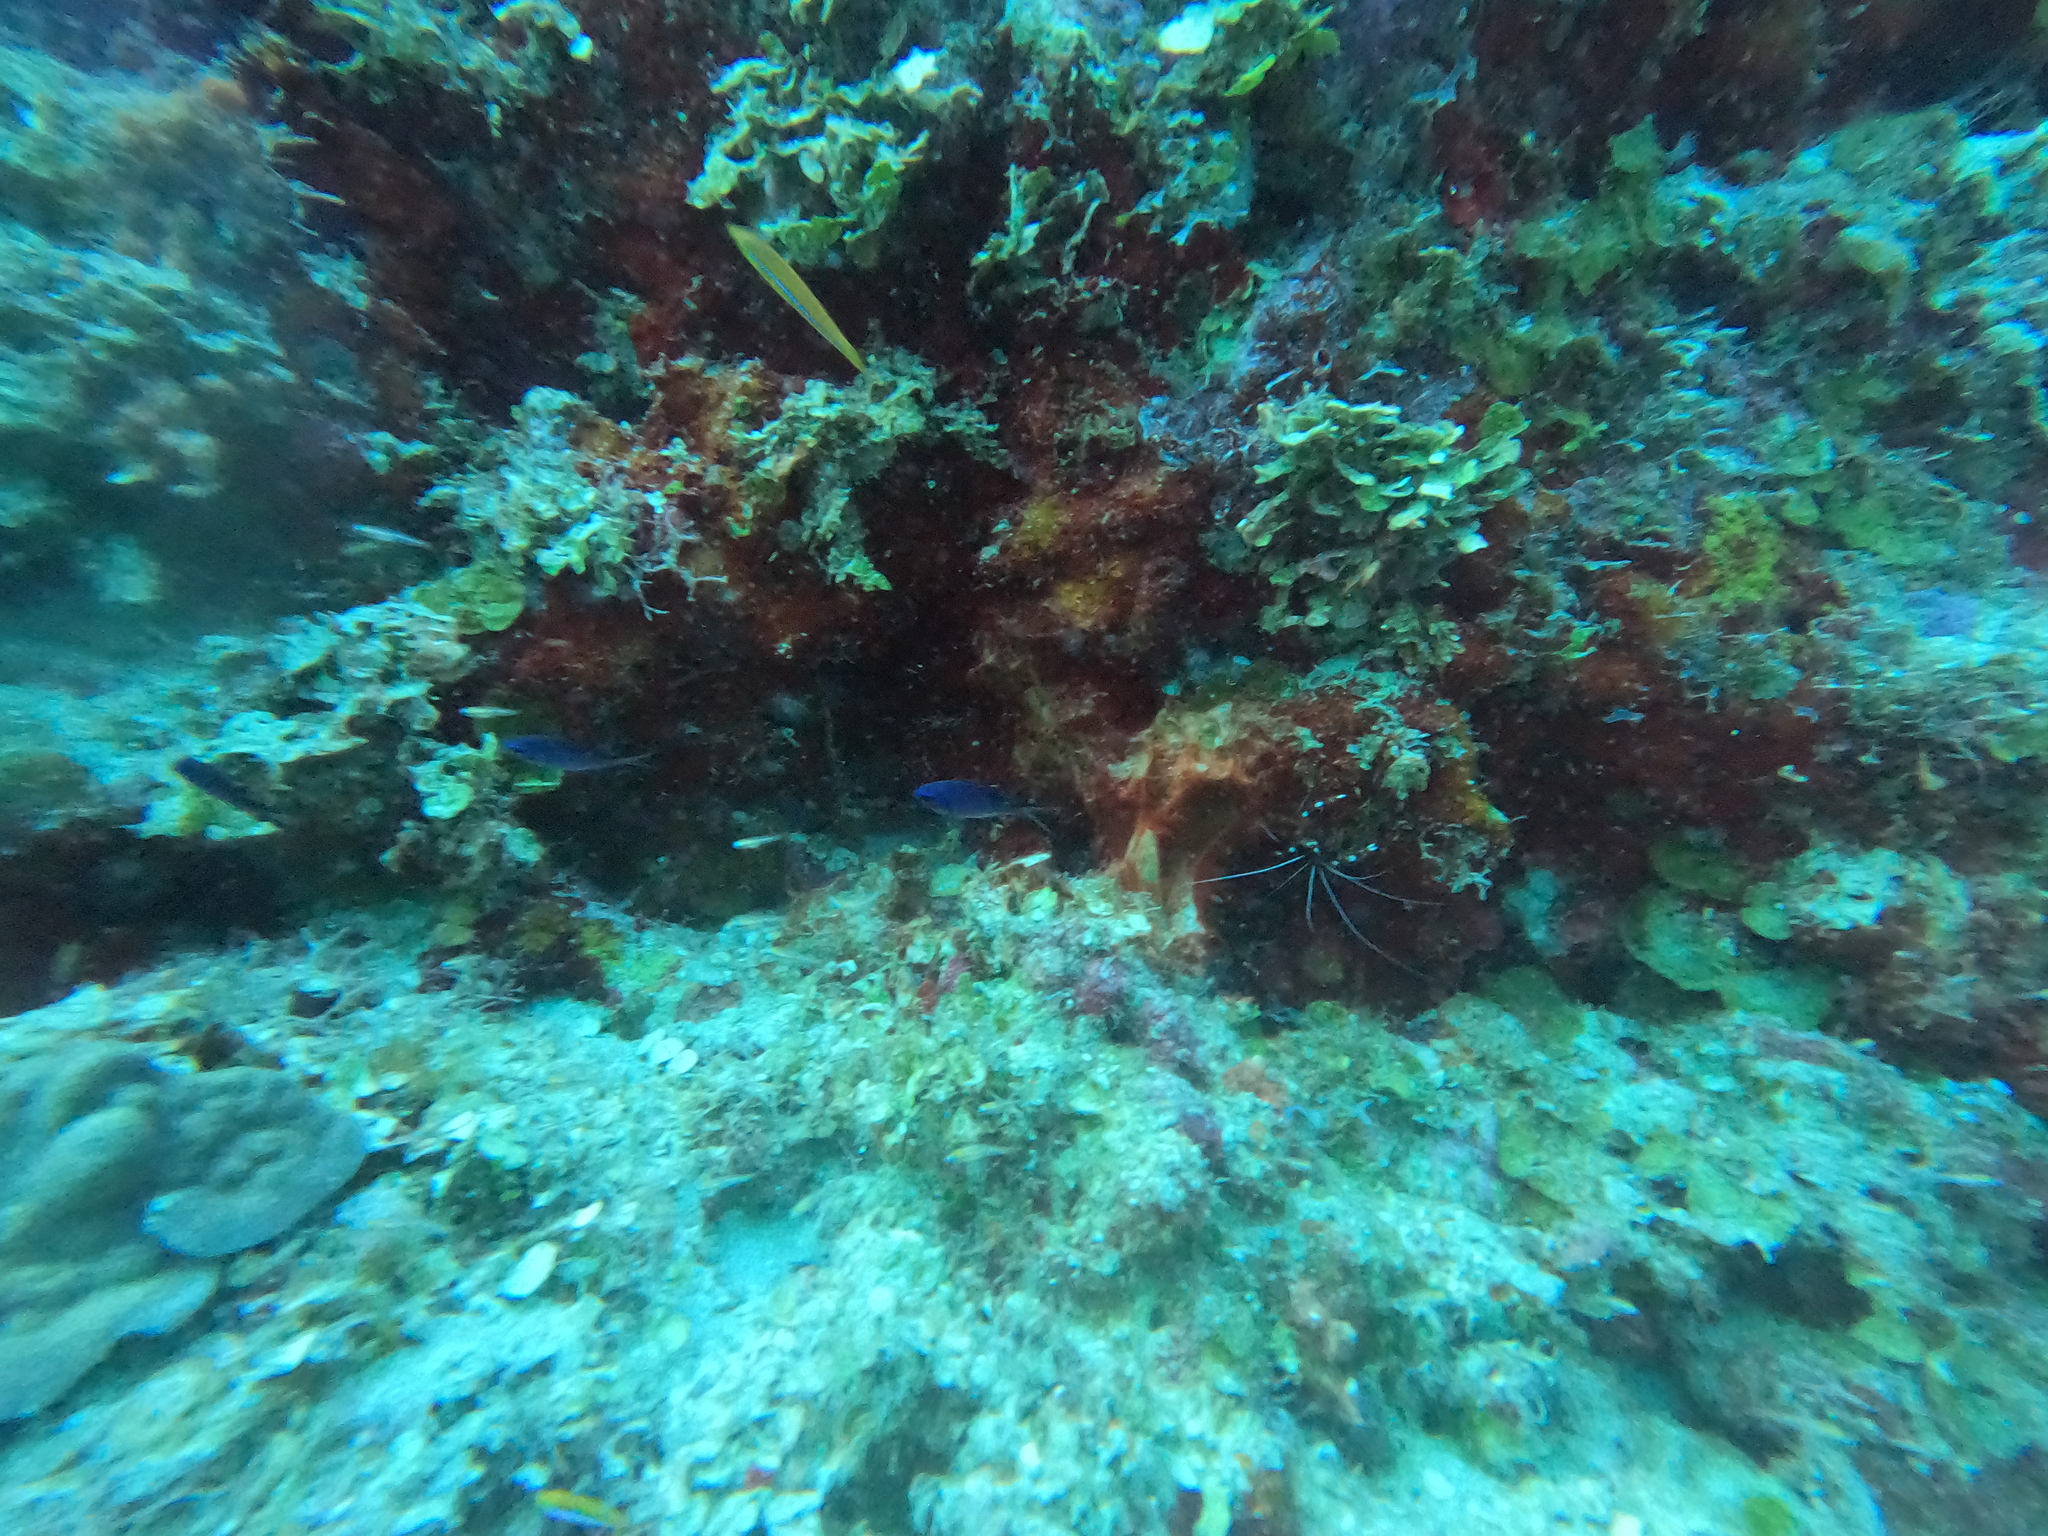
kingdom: Animalia
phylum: Arthropoda
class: Malacostraca
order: Decapoda
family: Stenopodidae
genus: Stenopus
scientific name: Stenopus hispidus
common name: Banded coral shrimp
